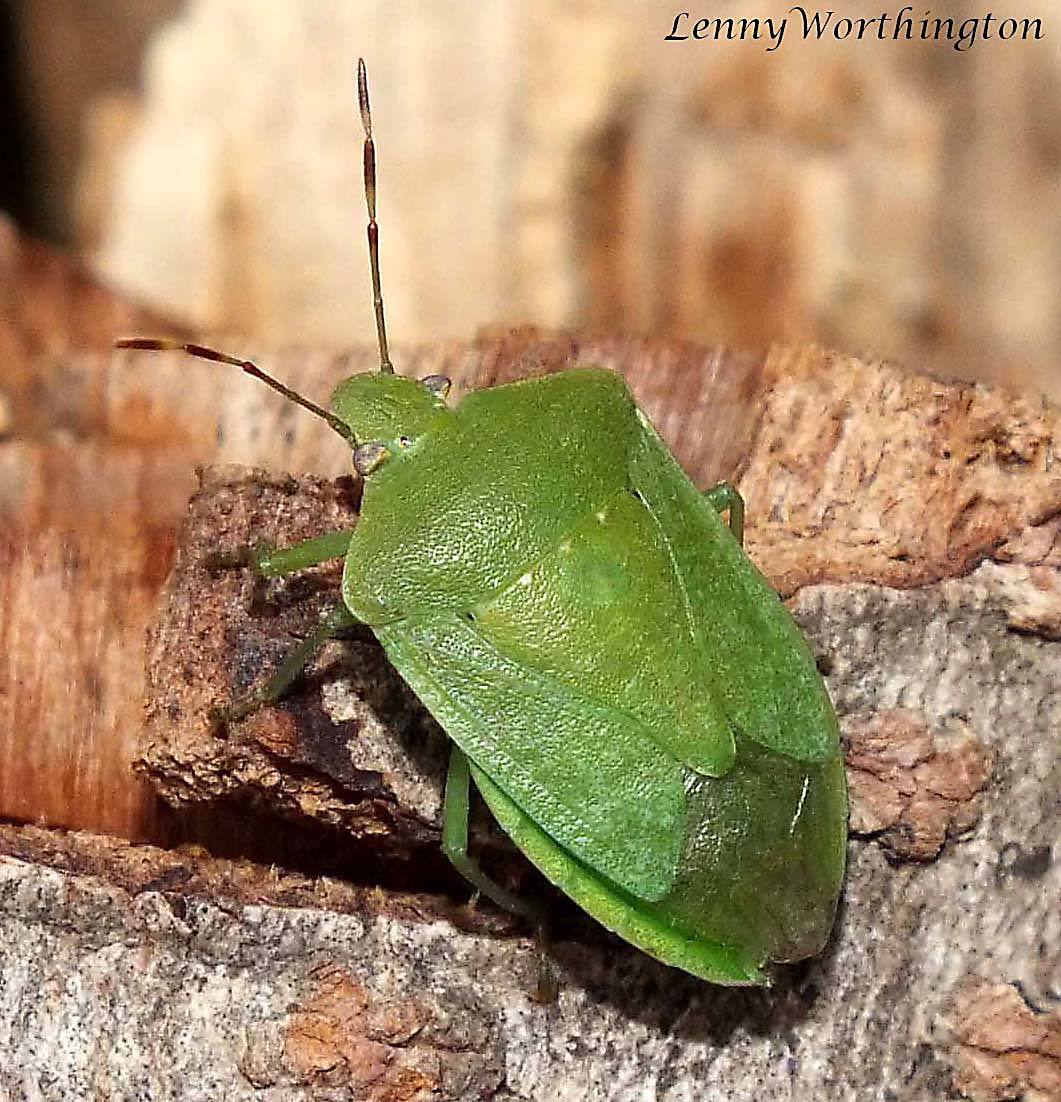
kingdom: Animalia
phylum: Arthropoda
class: Insecta
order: Hemiptera
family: Pentatomidae
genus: Nezara
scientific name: Nezara viridula
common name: Southern green stink bug
